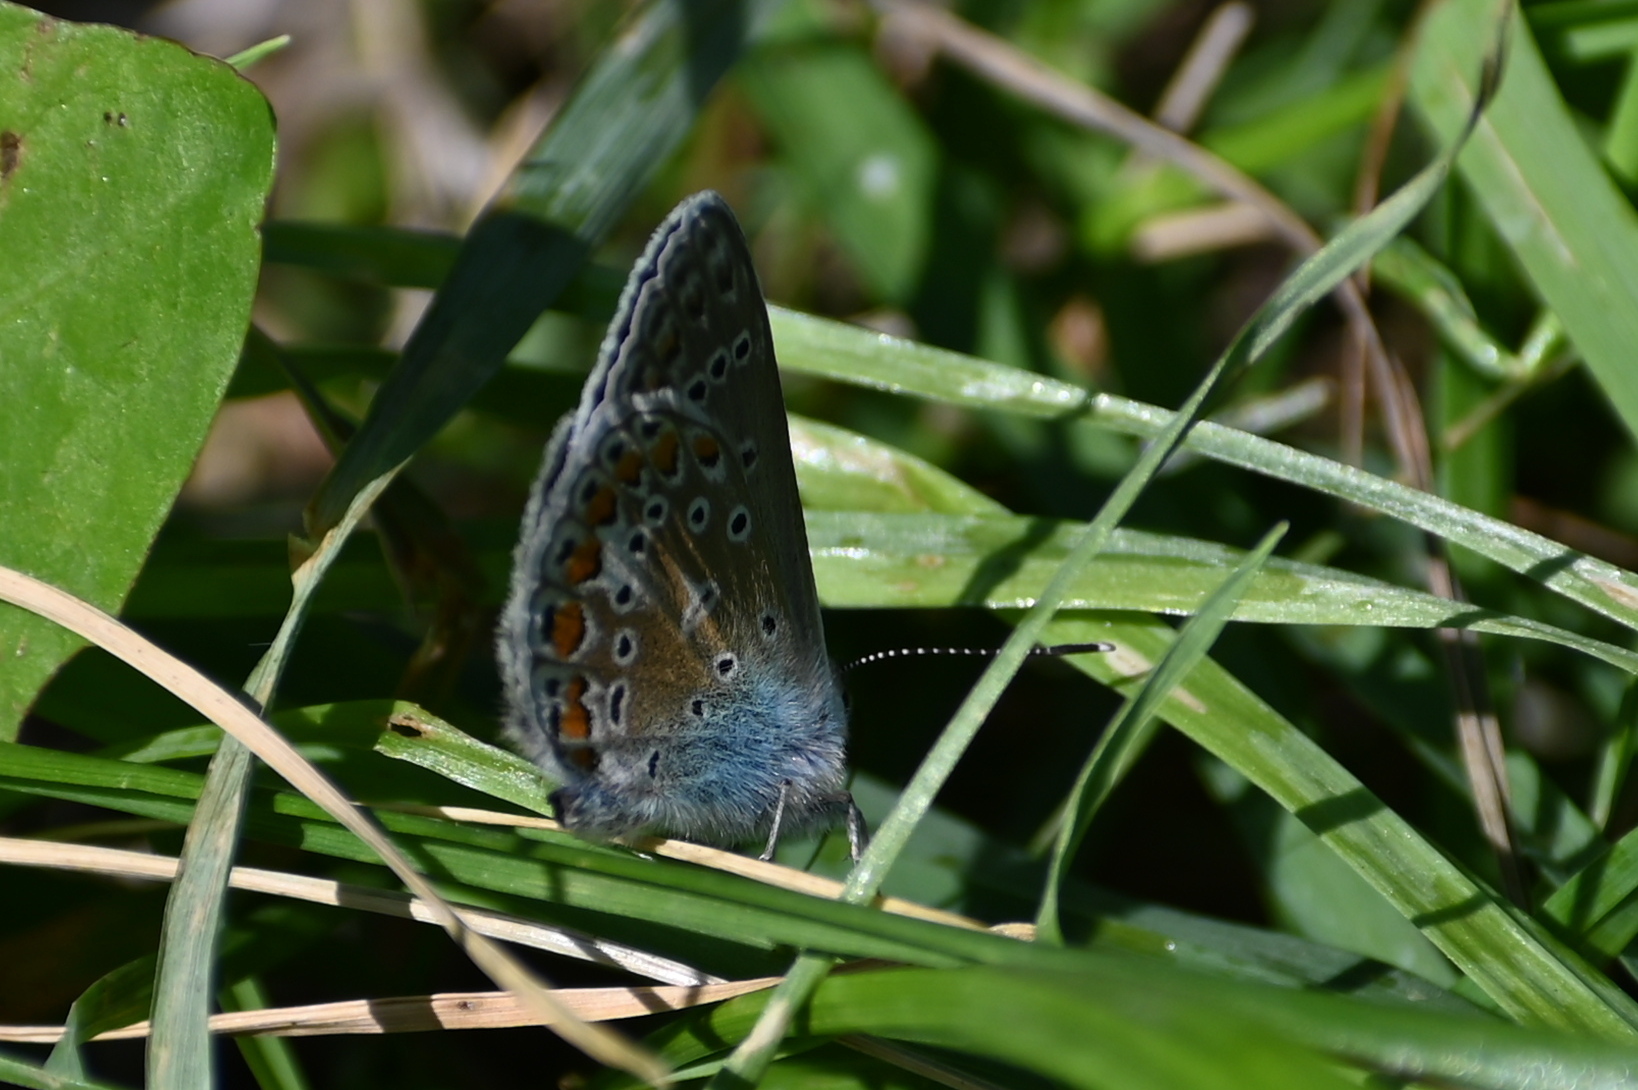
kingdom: Animalia
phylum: Arthropoda
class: Insecta
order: Lepidoptera
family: Lycaenidae
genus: Polyommatus
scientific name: Polyommatus icarus
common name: Common blue
